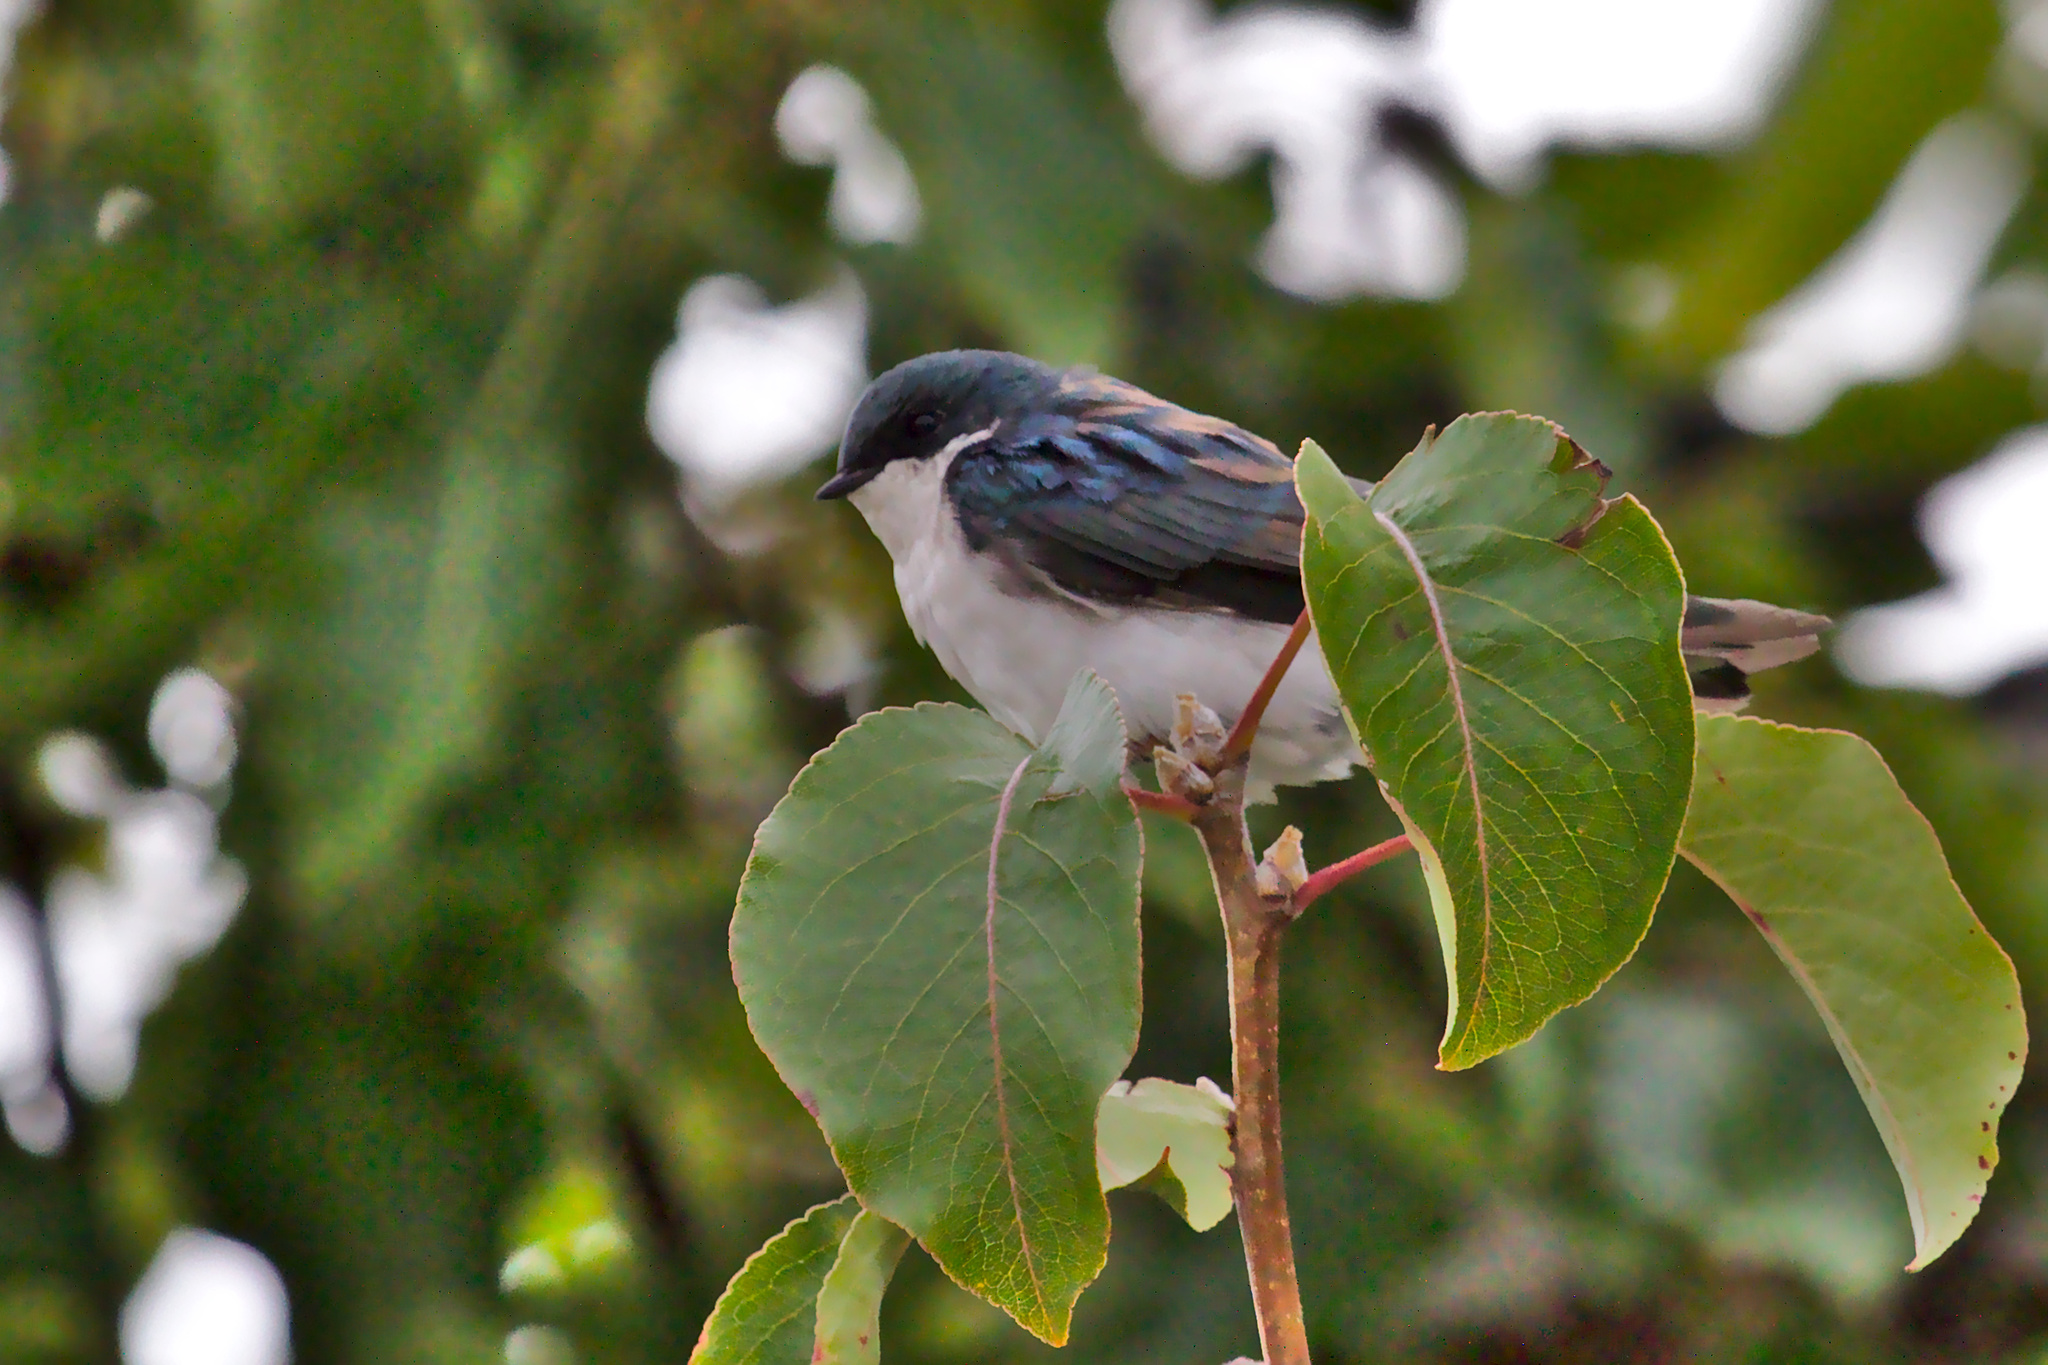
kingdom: Animalia
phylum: Chordata
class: Aves
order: Passeriformes
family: Hirundinidae
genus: Tachycineta
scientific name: Tachycineta bicolor
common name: Tree swallow
